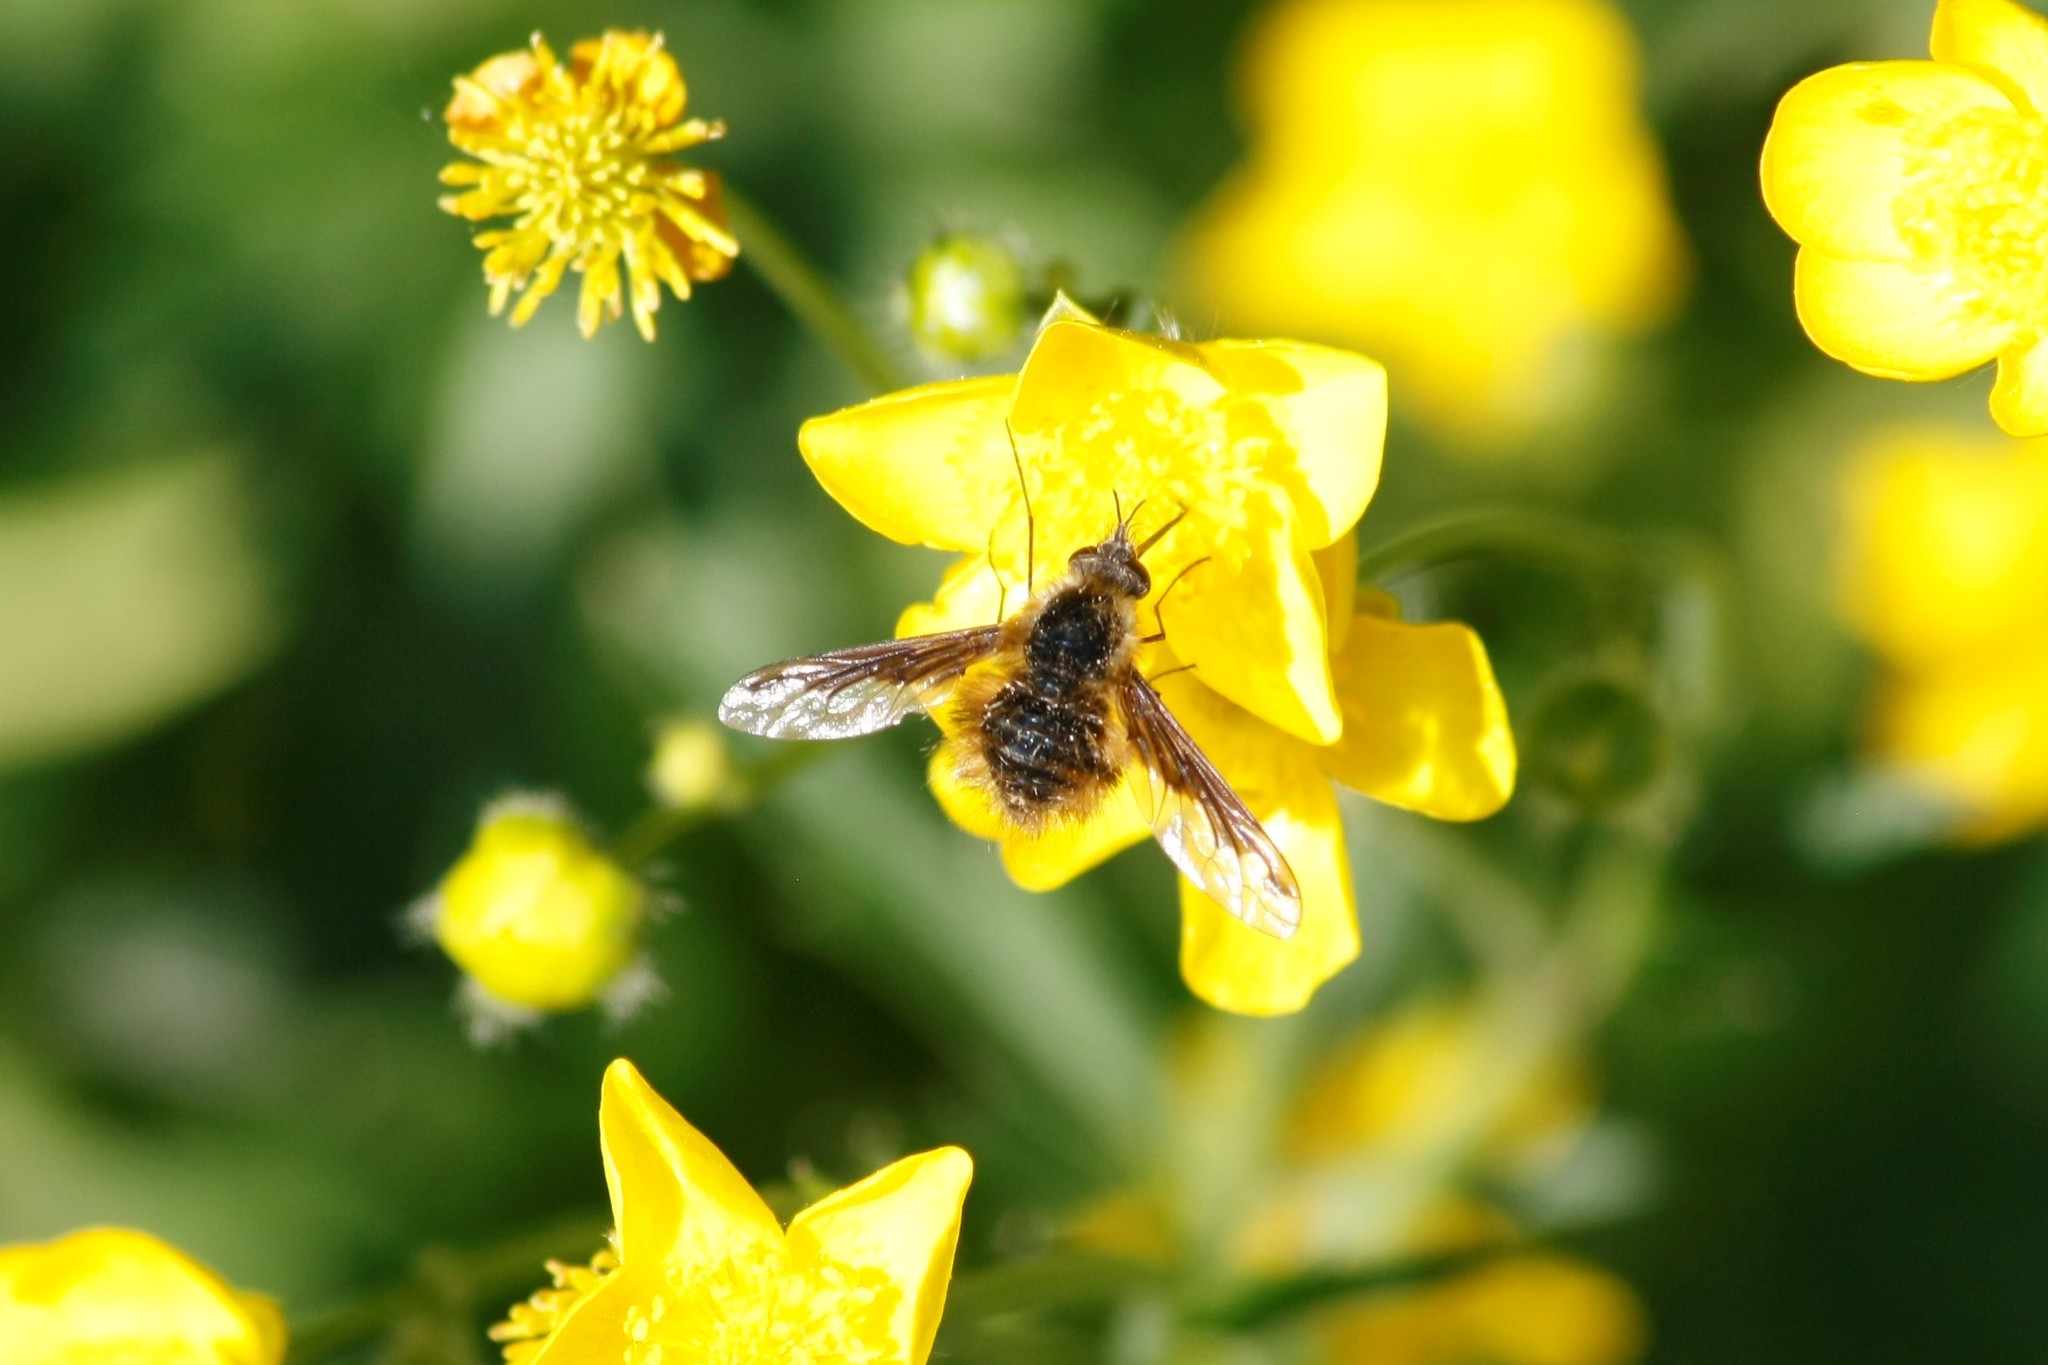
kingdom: Animalia
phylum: Arthropoda
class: Insecta
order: Diptera
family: Bombyliidae
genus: Bombylius
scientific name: Bombylius major
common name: Bee fly
